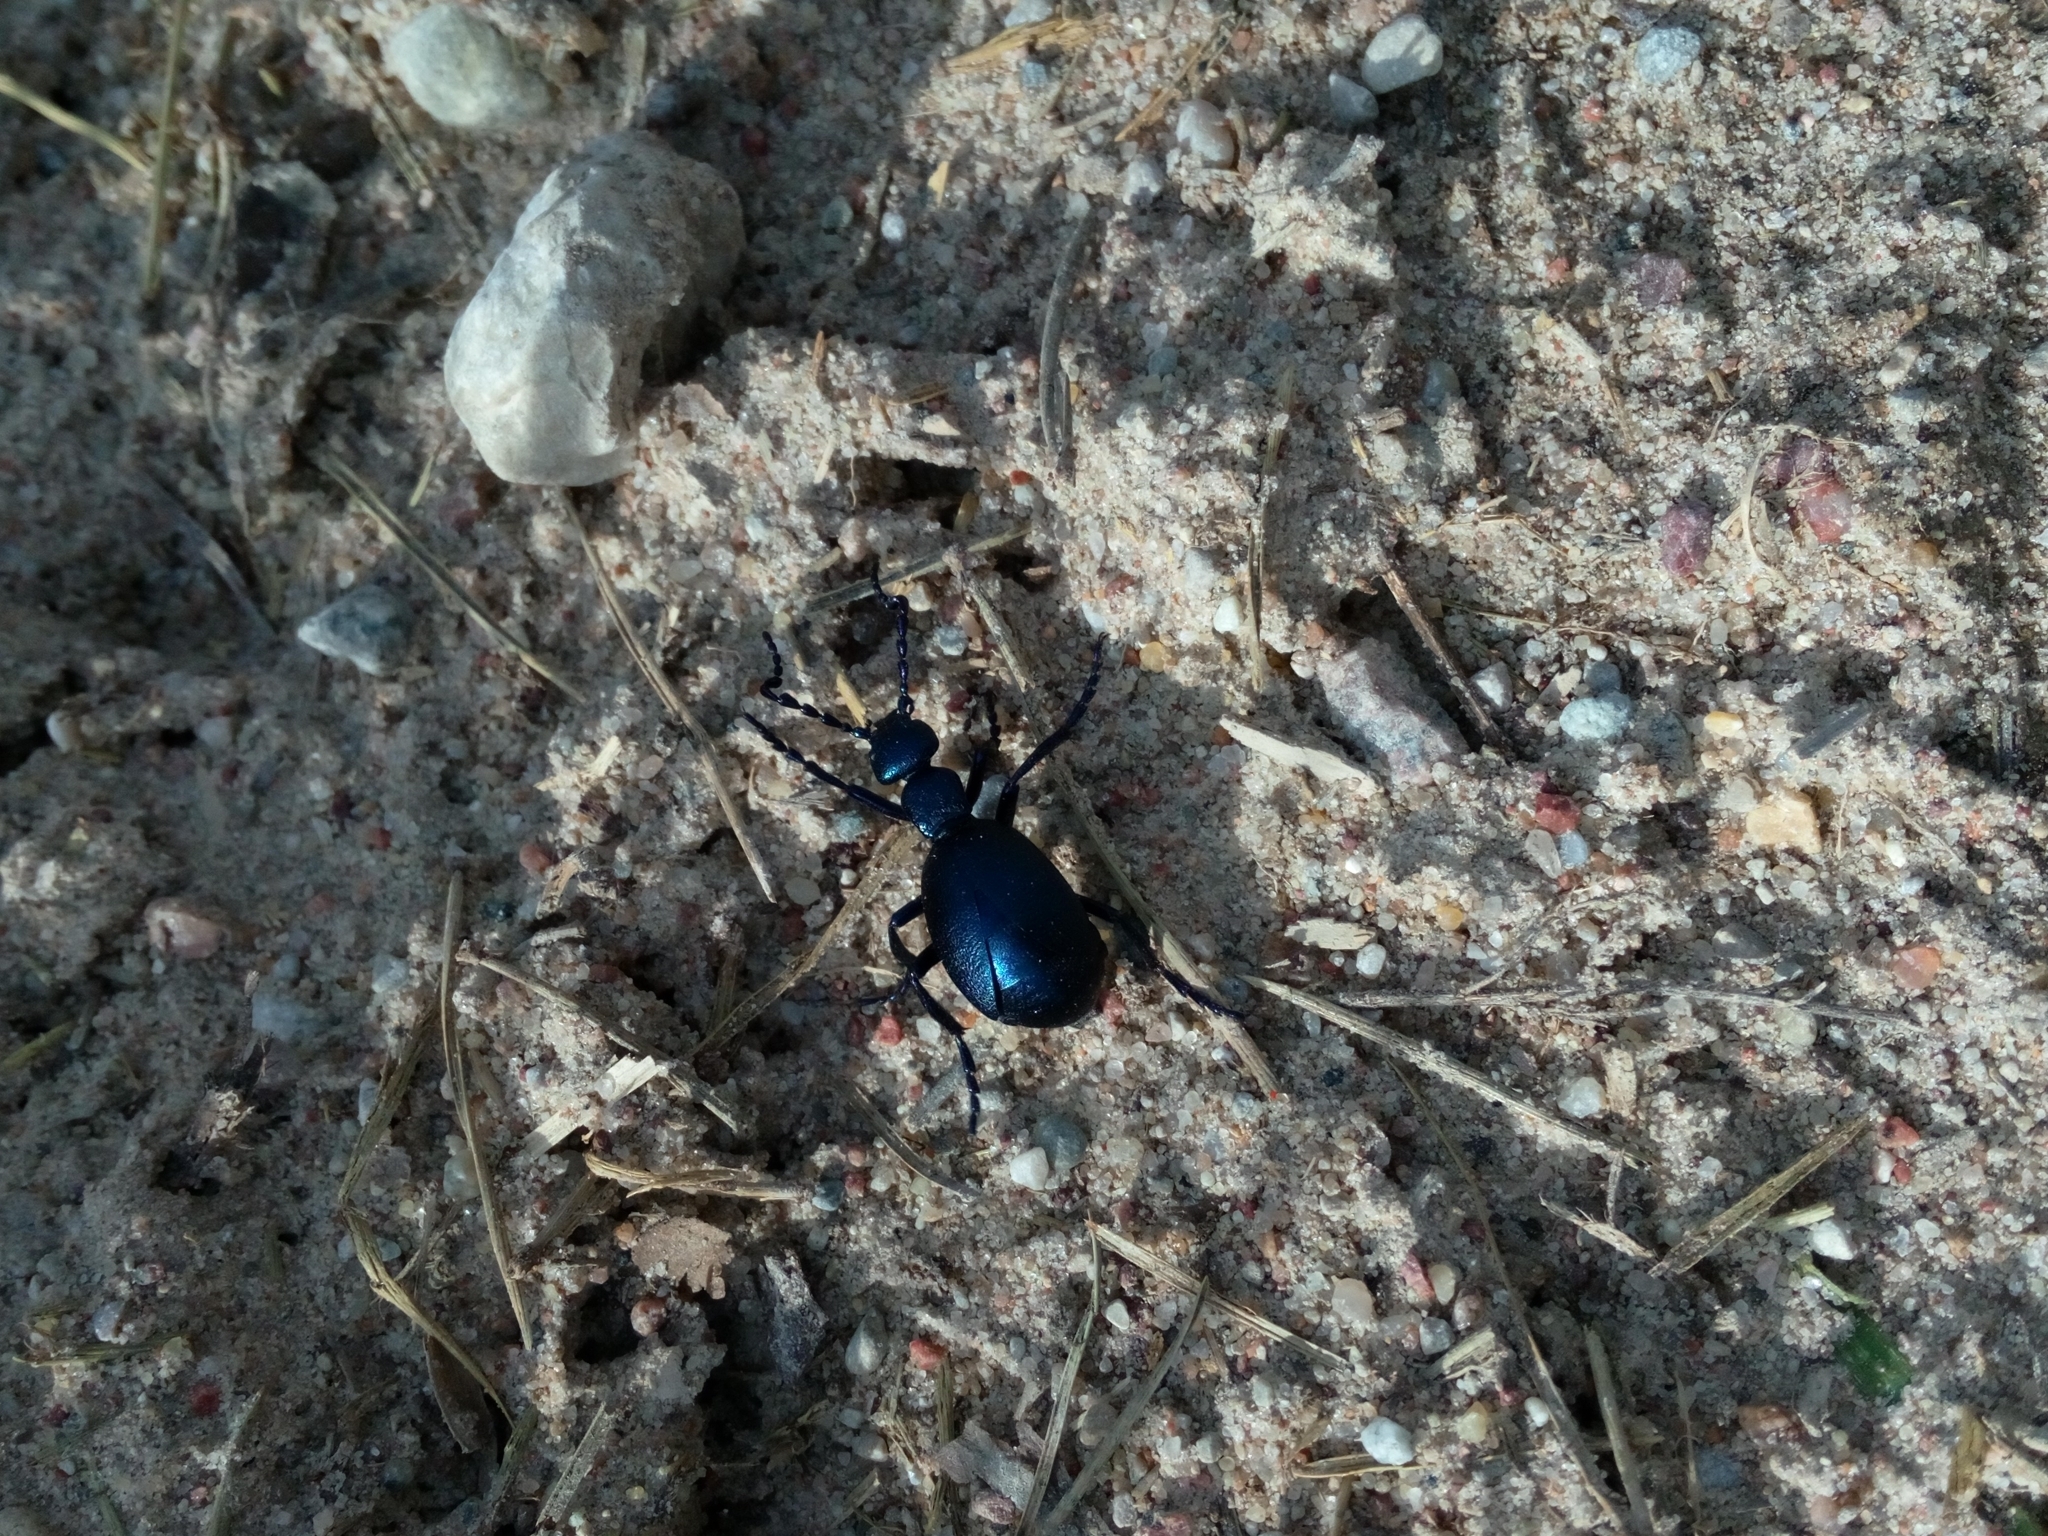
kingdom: Animalia
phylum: Arthropoda
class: Insecta
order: Coleoptera
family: Meloidae
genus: Meloe
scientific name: Meloe violaceus
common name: Violet oil-beetle
